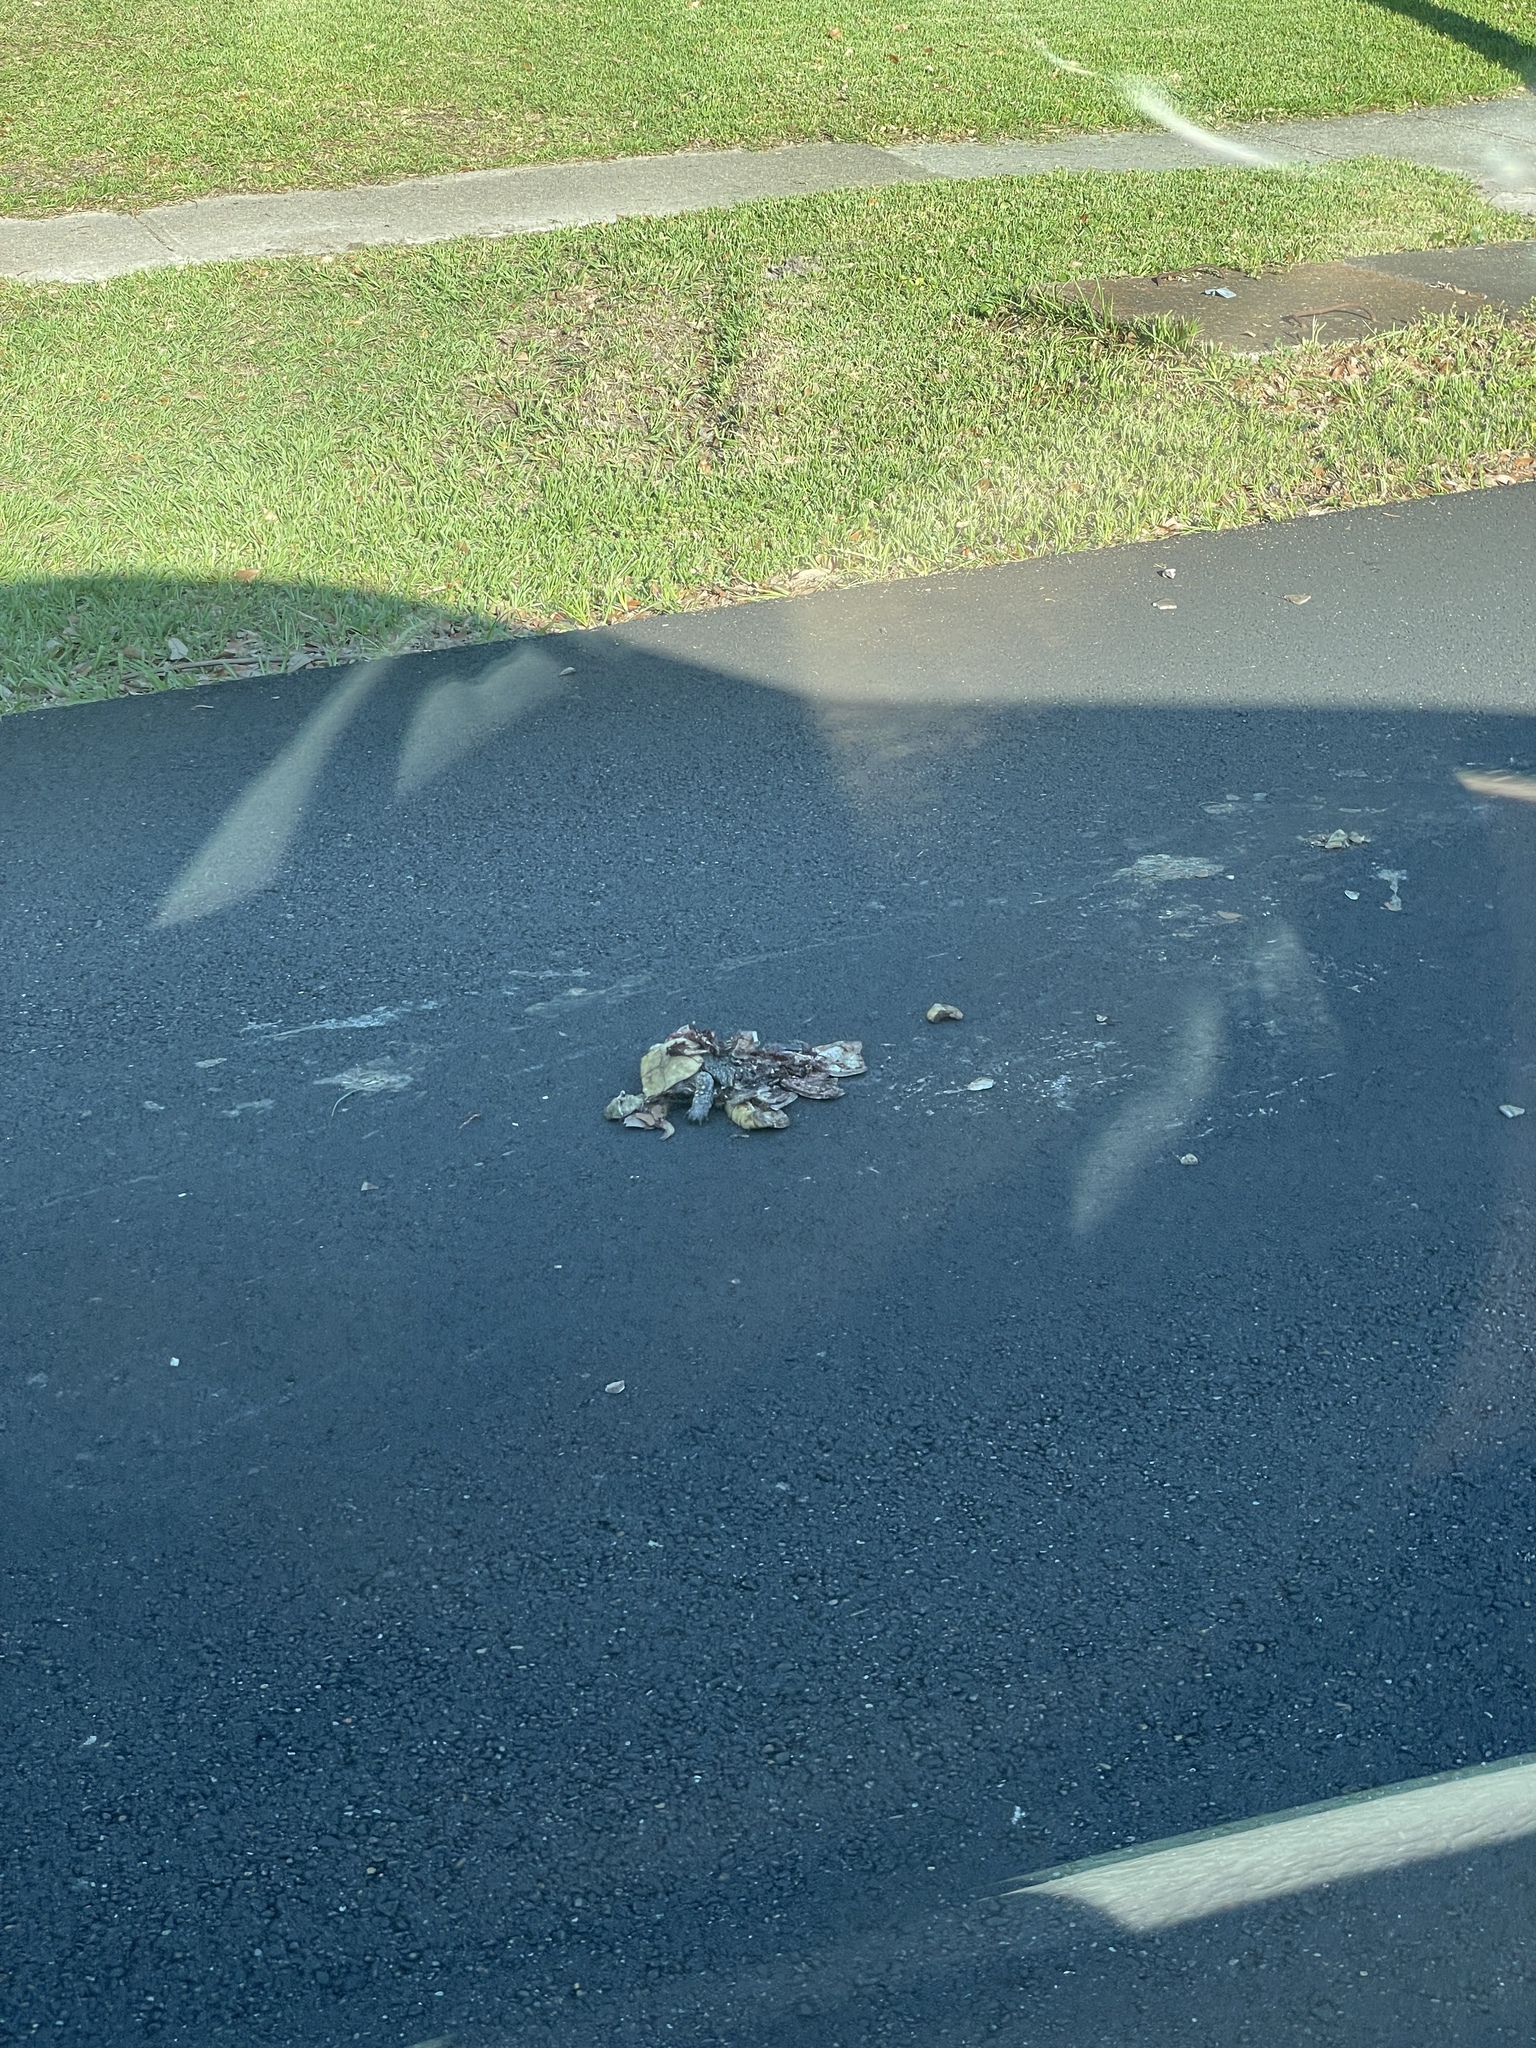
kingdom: Animalia
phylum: Chordata
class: Testudines
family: Emydidae
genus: Terrapene
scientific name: Terrapene carolina
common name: Common box turtle
